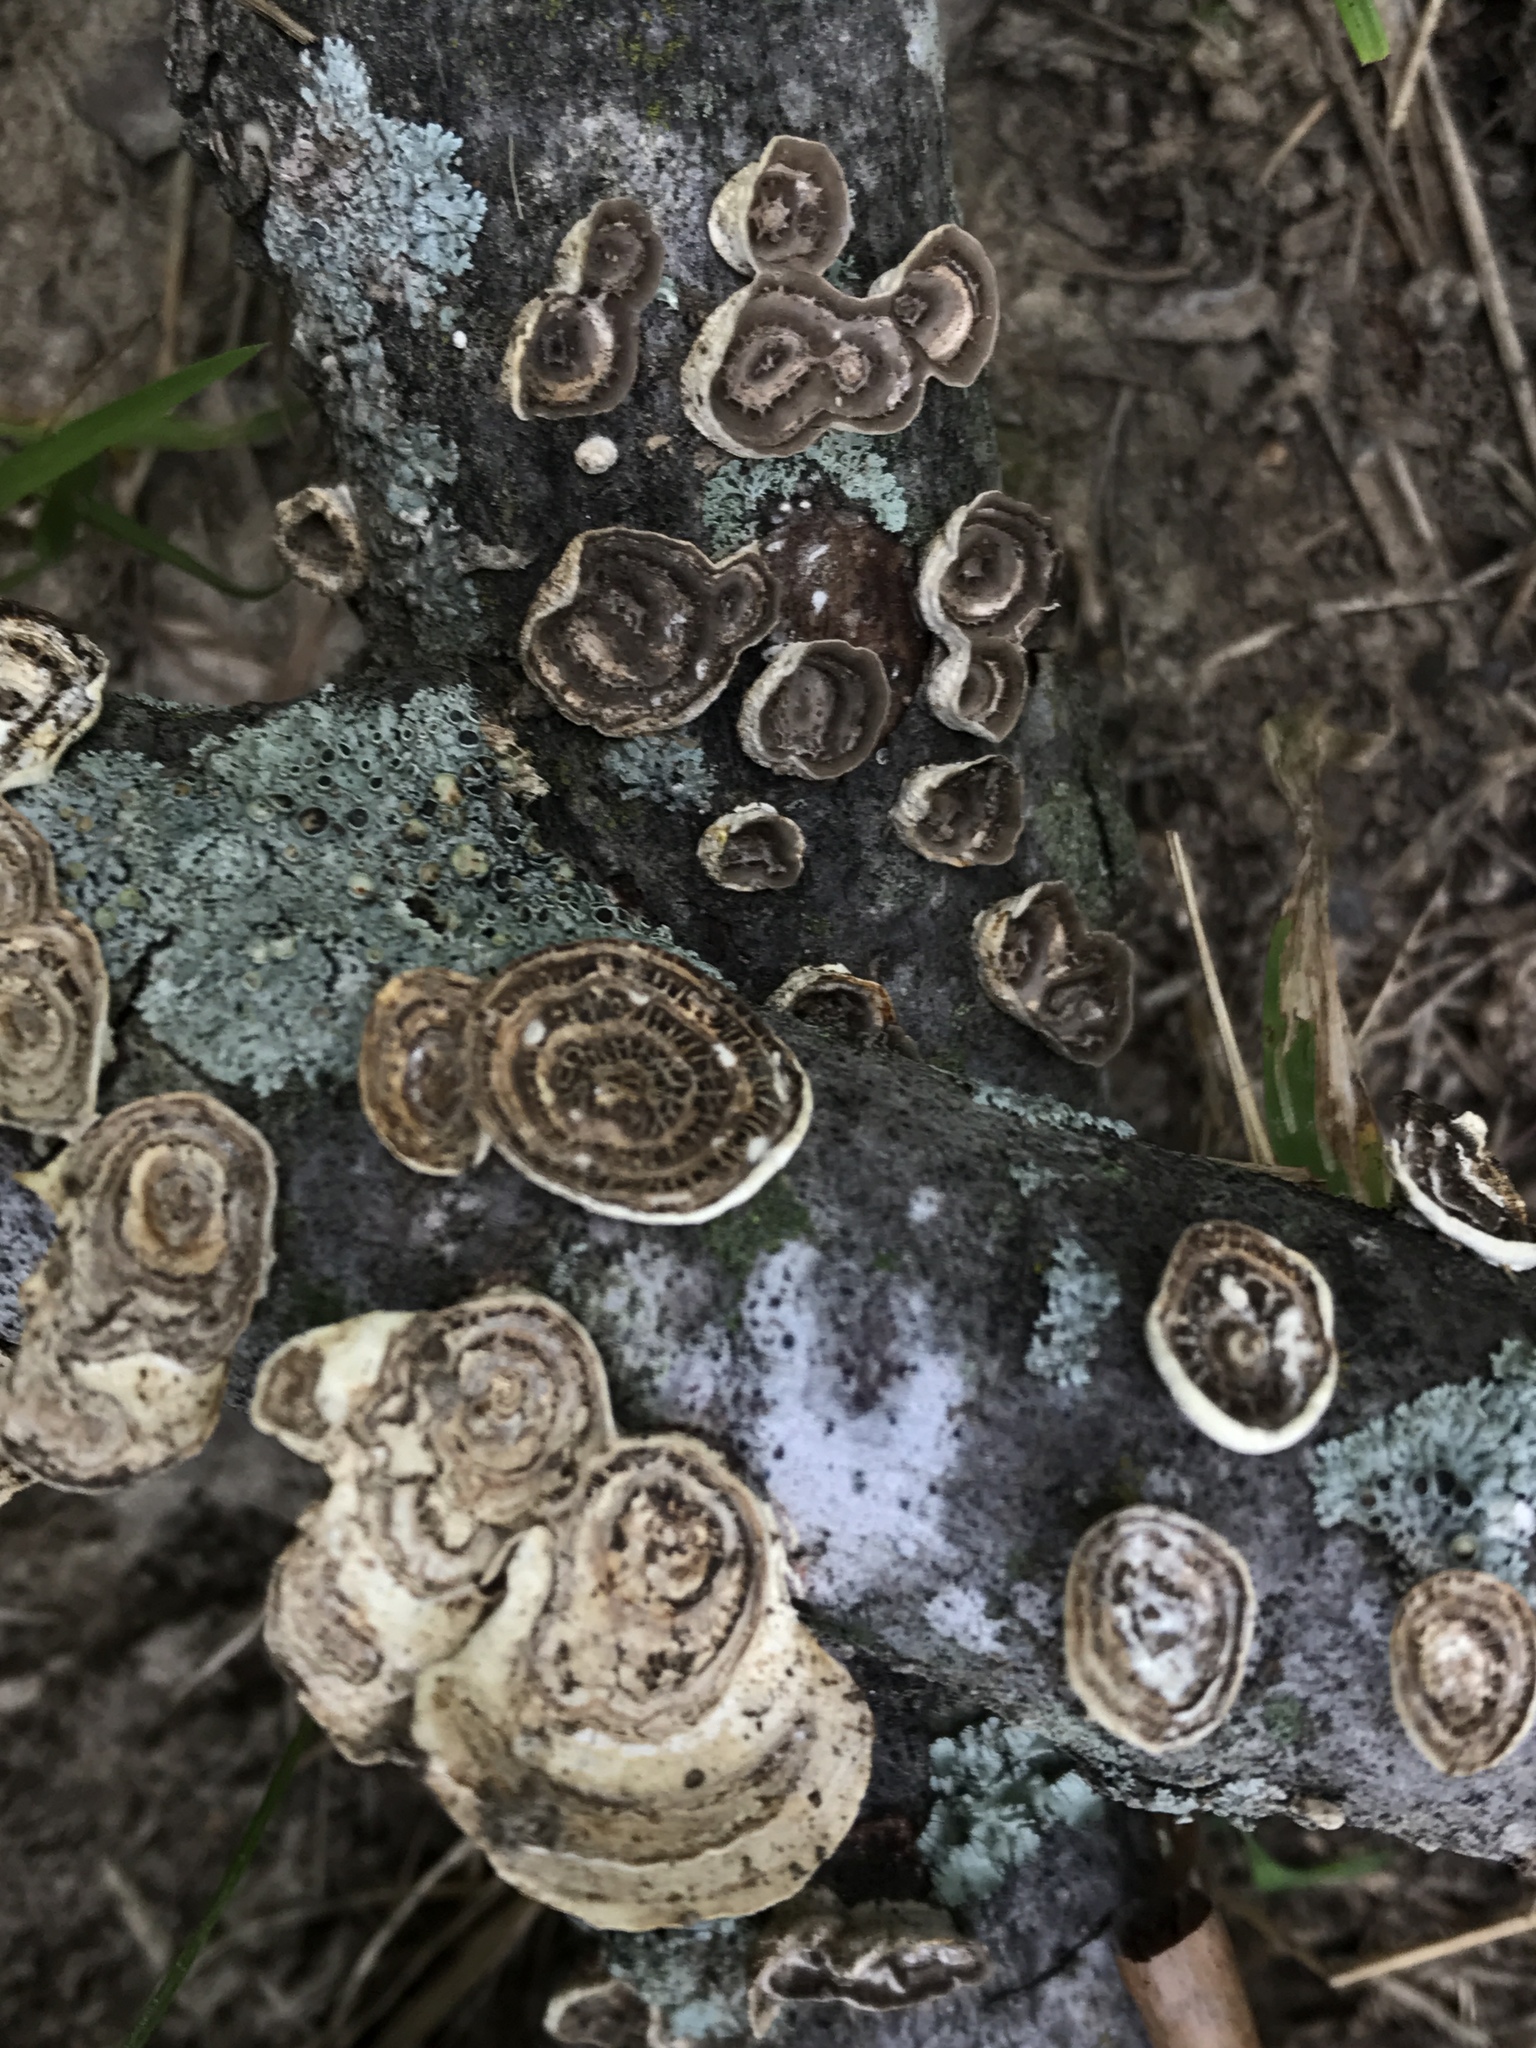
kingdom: Fungi
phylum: Basidiomycota
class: Agaricomycetes
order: Polyporales
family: Polyporaceae
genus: Poronidulus
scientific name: Poronidulus conchifer
